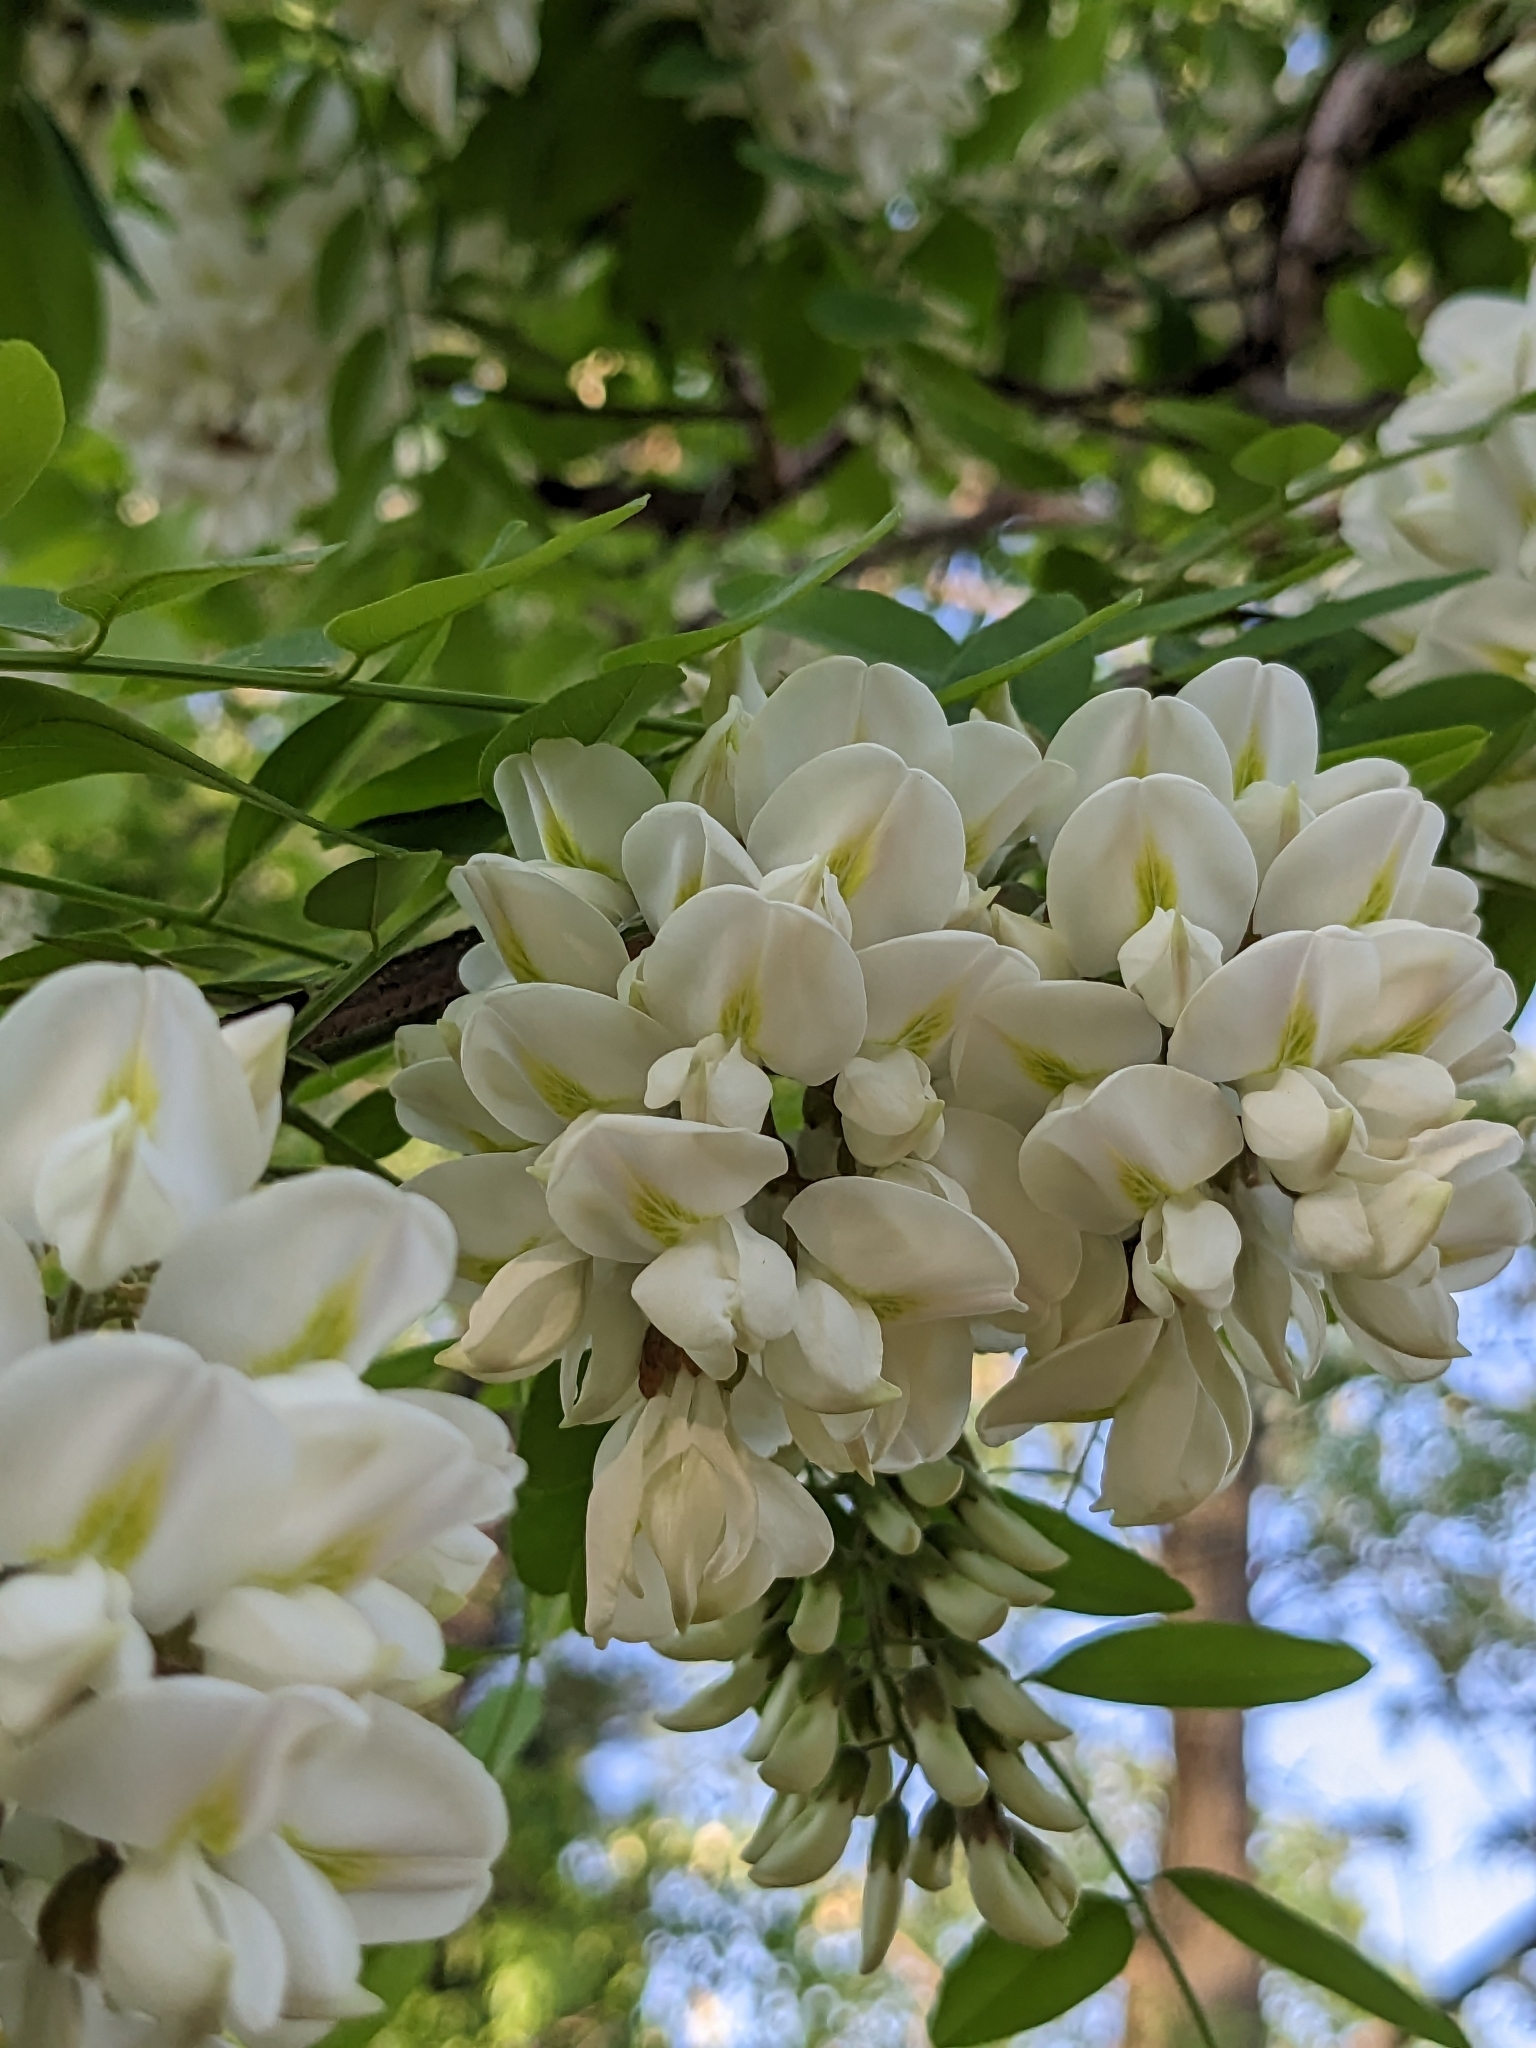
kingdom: Plantae
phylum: Tracheophyta
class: Magnoliopsida
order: Fabales
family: Fabaceae
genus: Robinia
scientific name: Robinia pseudoacacia
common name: Black locust
